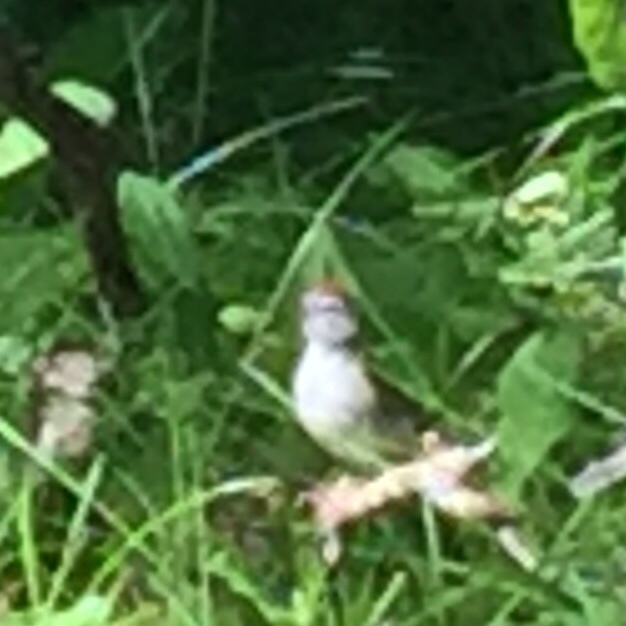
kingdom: Animalia
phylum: Chordata
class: Aves
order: Passeriformes
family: Passerellidae
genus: Spizella
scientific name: Spizella passerina
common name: Chipping sparrow
